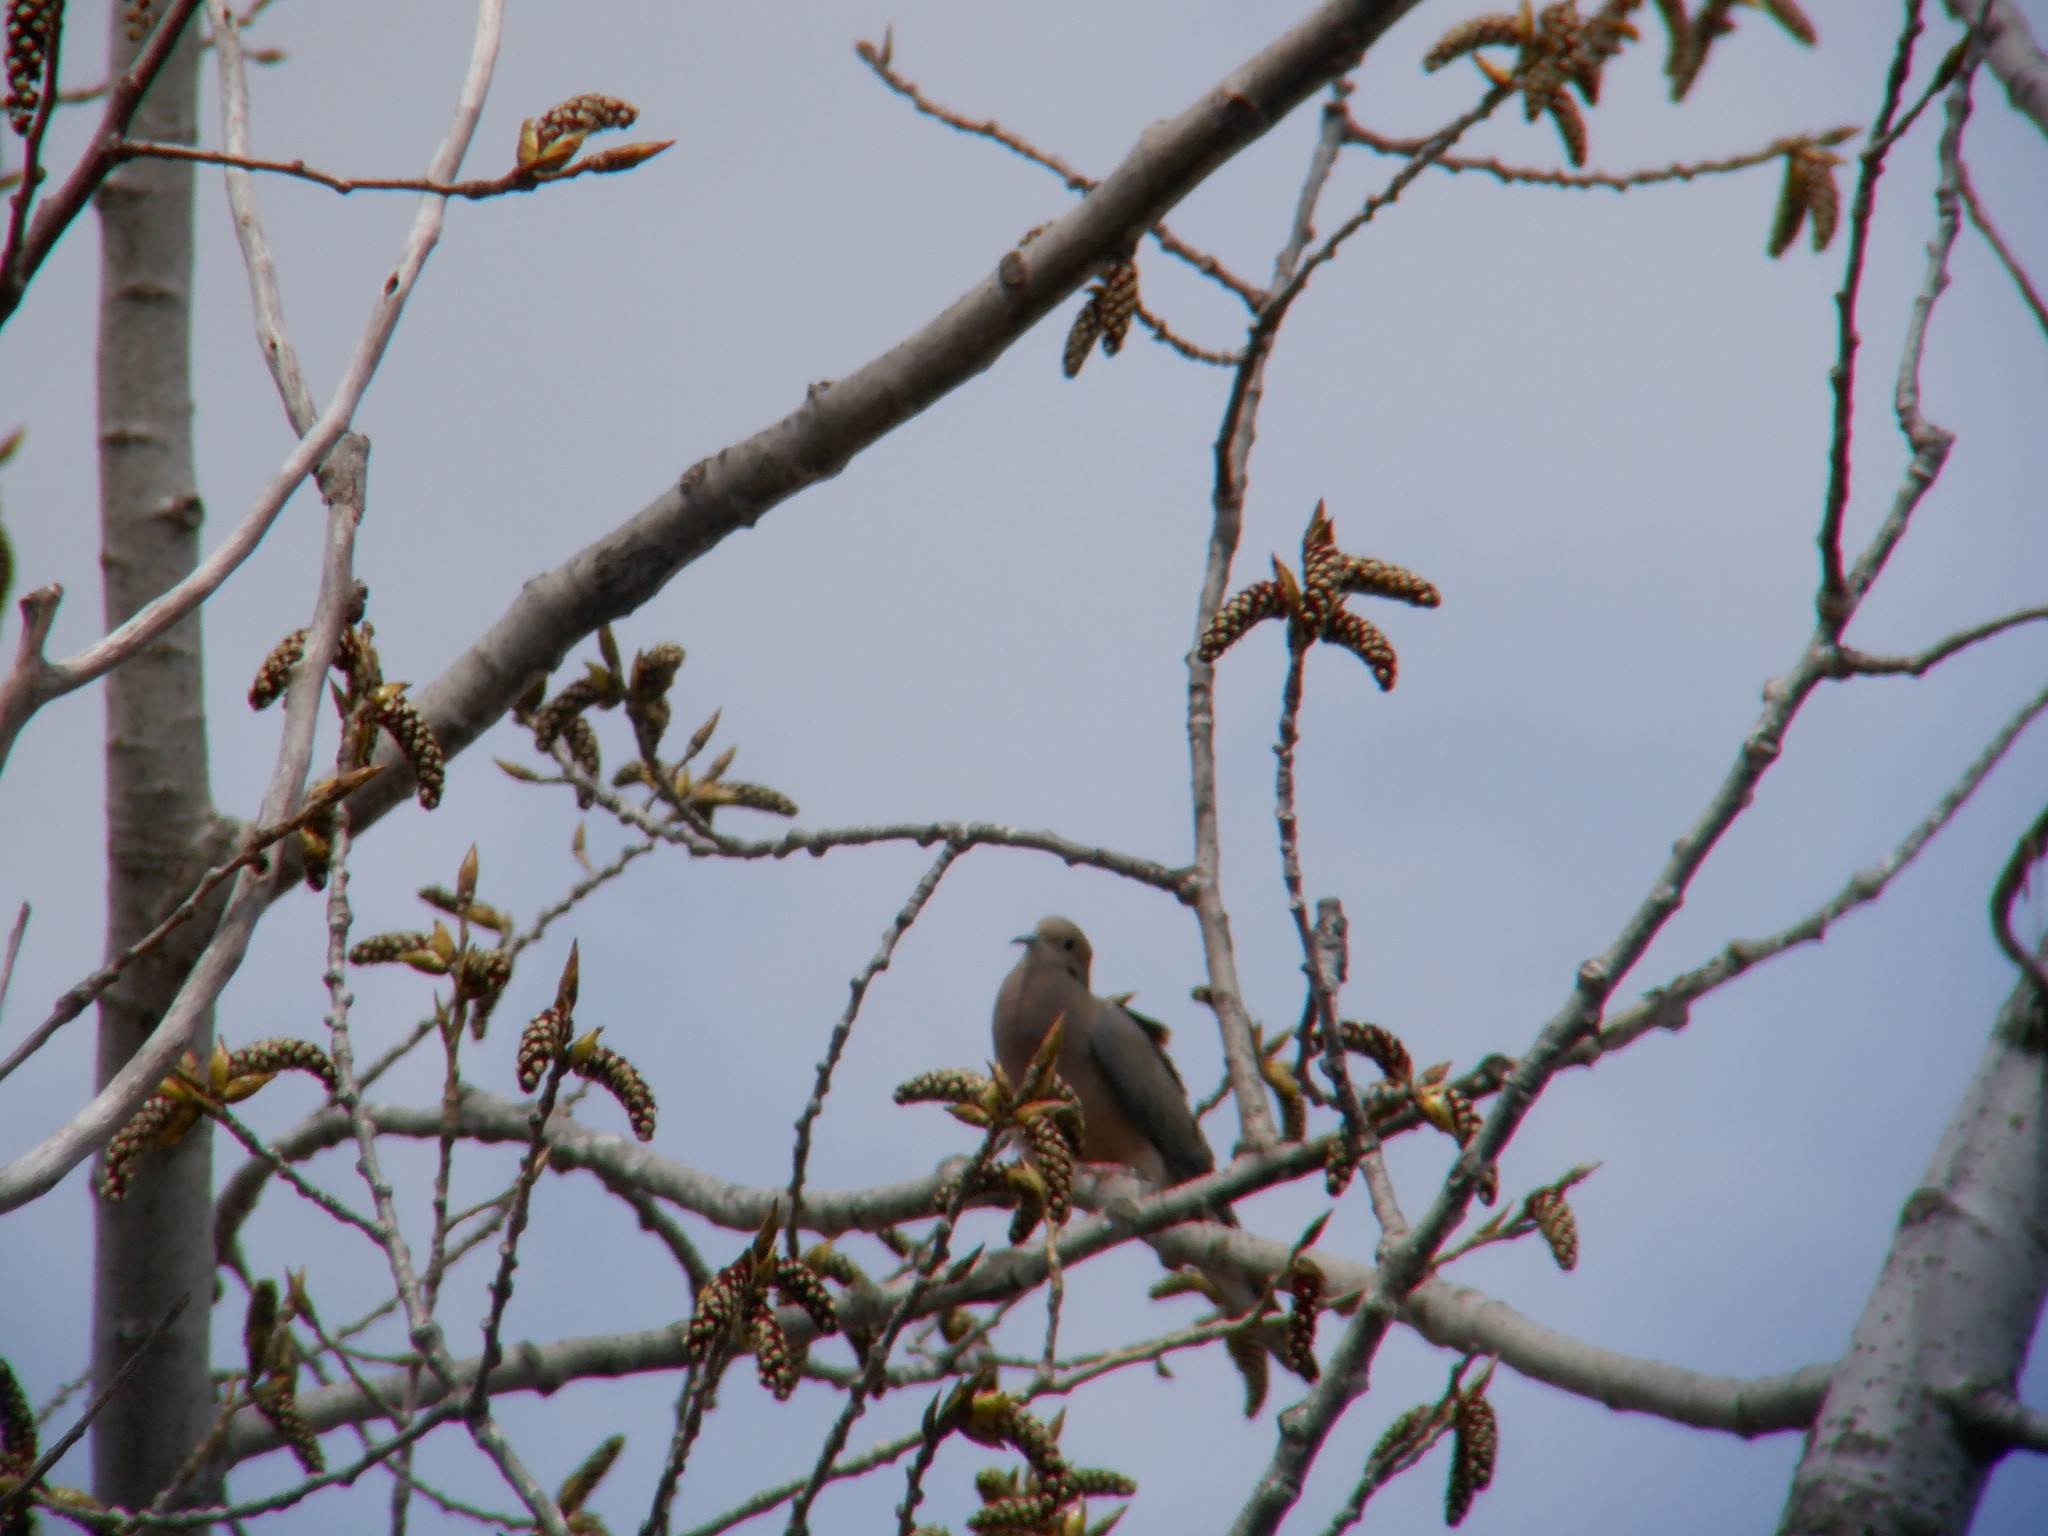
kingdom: Animalia
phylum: Chordata
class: Aves
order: Columbiformes
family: Columbidae
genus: Zenaida
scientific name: Zenaida macroura
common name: Mourning dove
